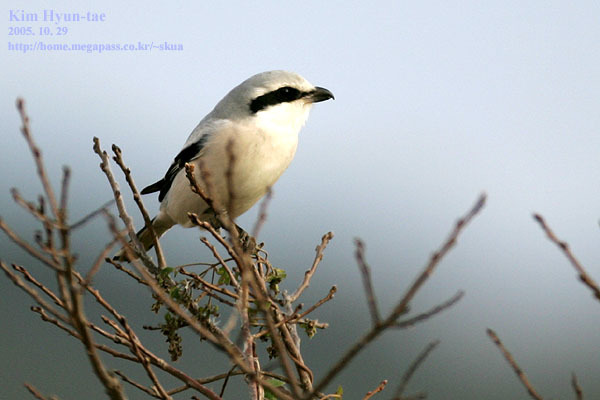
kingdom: Animalia
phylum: Chordata
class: Aves
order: Passeriformes
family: Laniidae
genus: Lanius
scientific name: Lanius sphenocercus
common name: Chinese grey shrike
